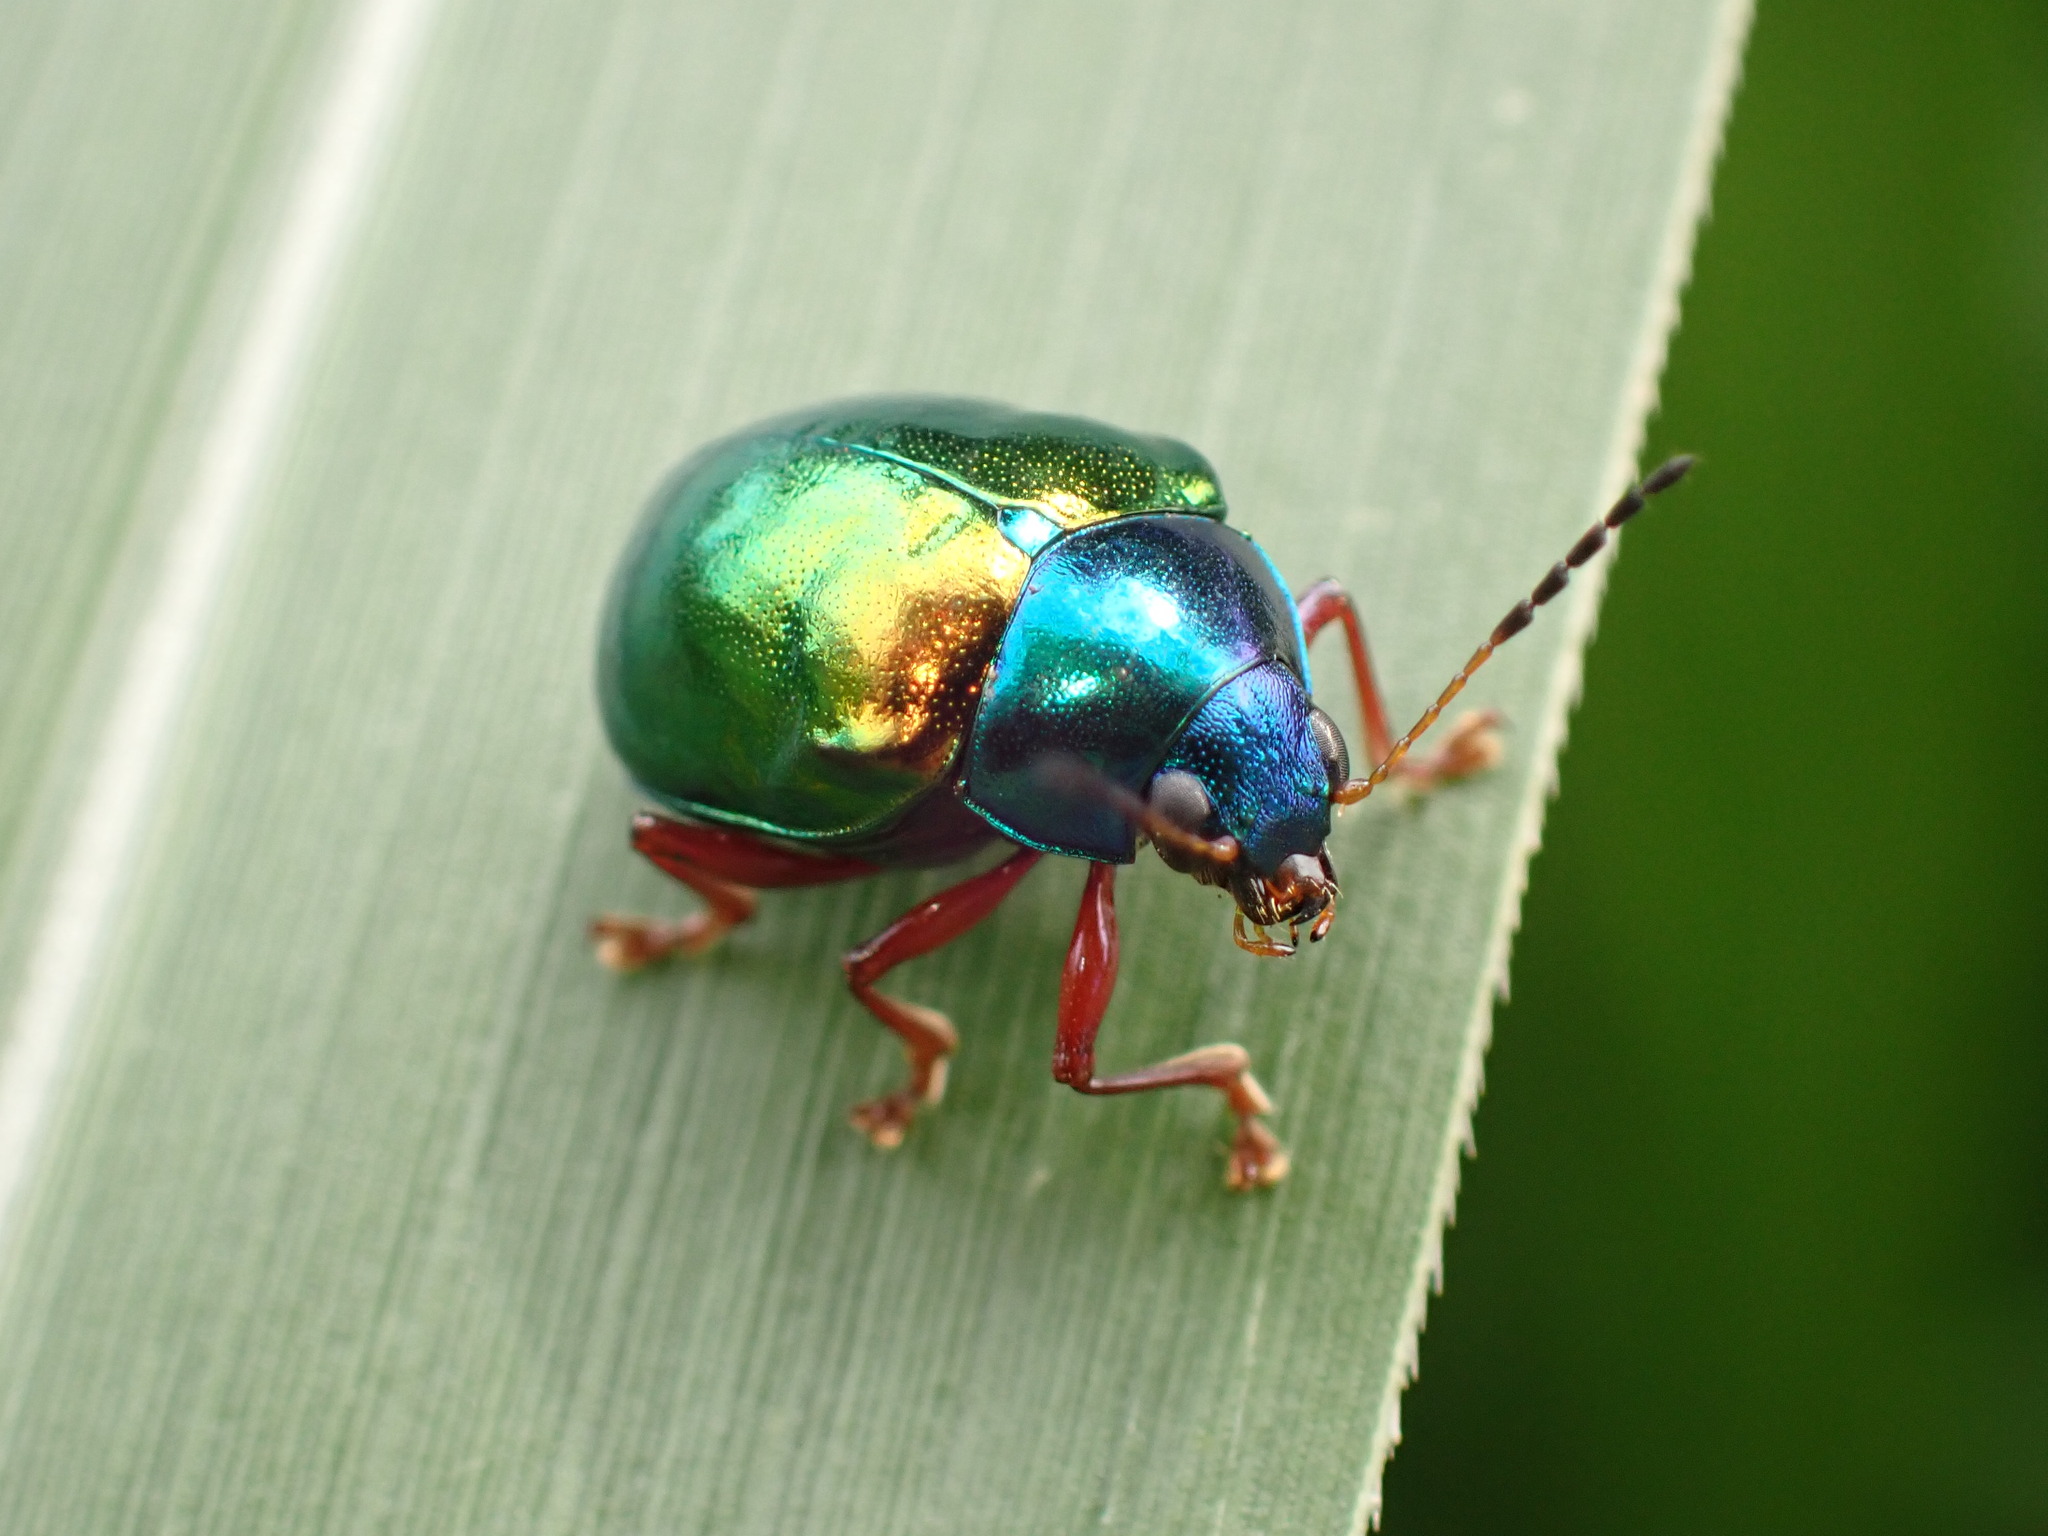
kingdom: Animalia
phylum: Arthropoda
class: Insecta
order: Coleoptera
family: Chrysomelidae
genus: Iphimeis
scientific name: Iphimeis
